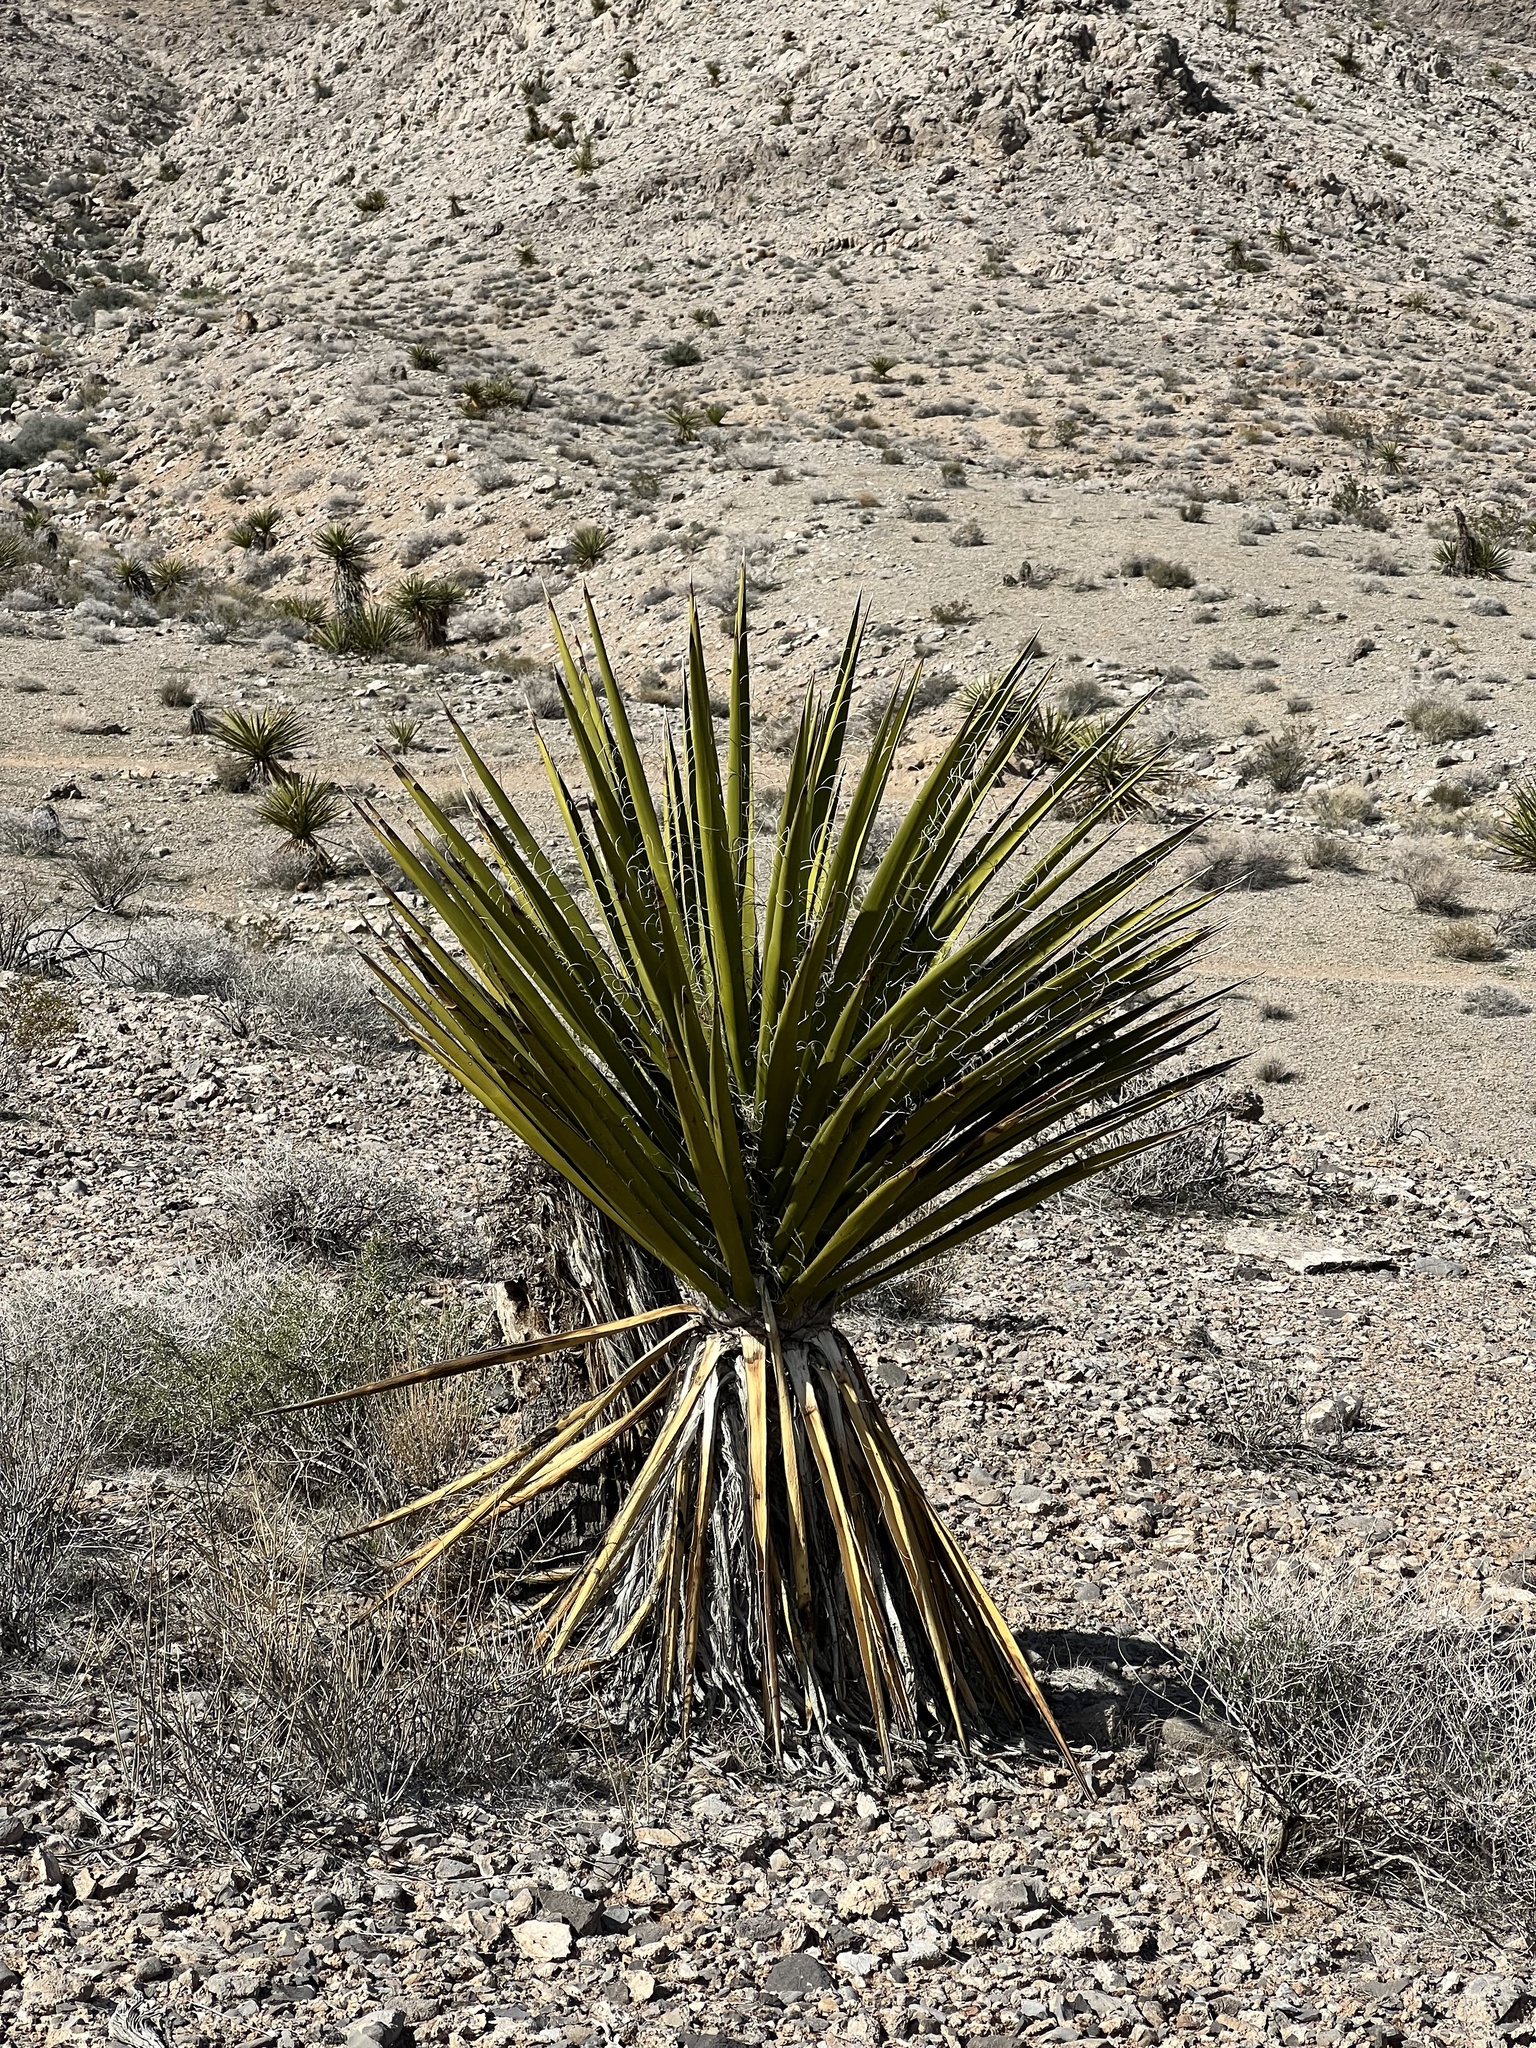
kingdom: Plantae
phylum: Tracheophyta
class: Liliopsida
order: Asparagales
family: Asparagaceae
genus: Yucca
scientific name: Yucca schidigera
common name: Mojave yucca
